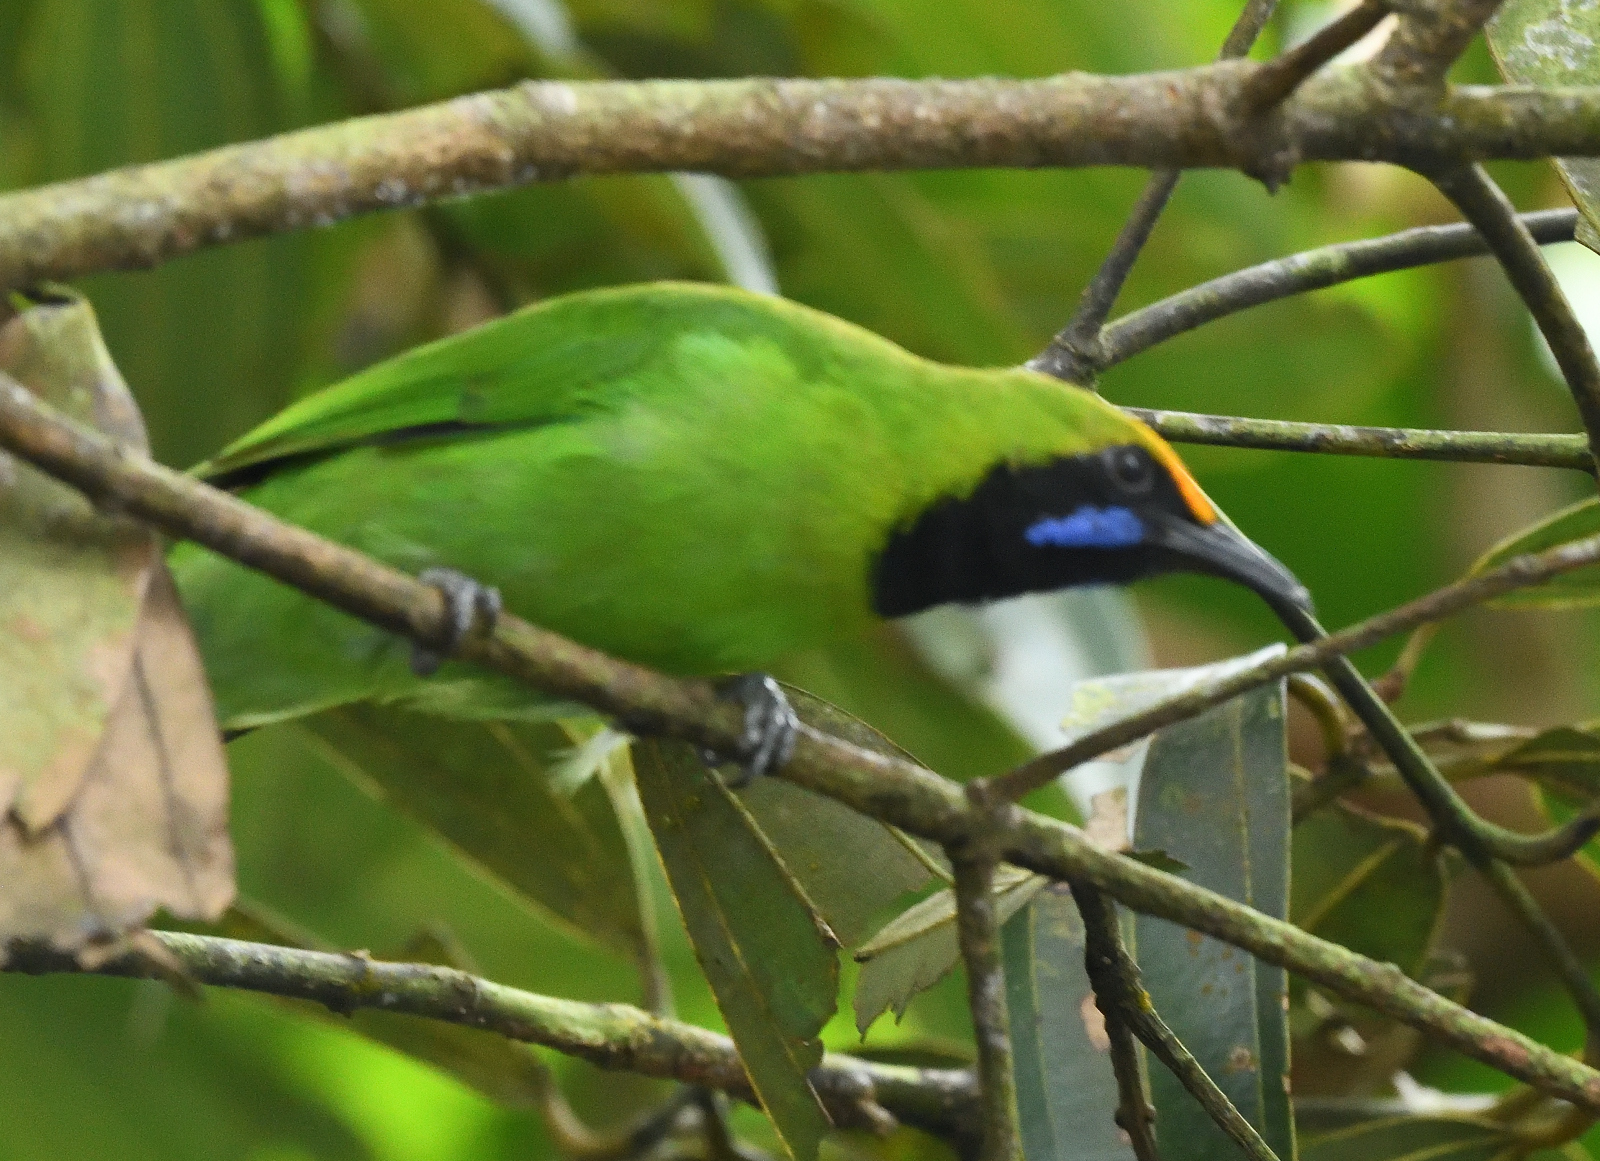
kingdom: Animalia
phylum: Chordata
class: Aves
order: Passeriformes
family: Chloropseidae
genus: Chloropsis
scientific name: Chloropsis aurifrons
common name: Golden-fronted leafbird
